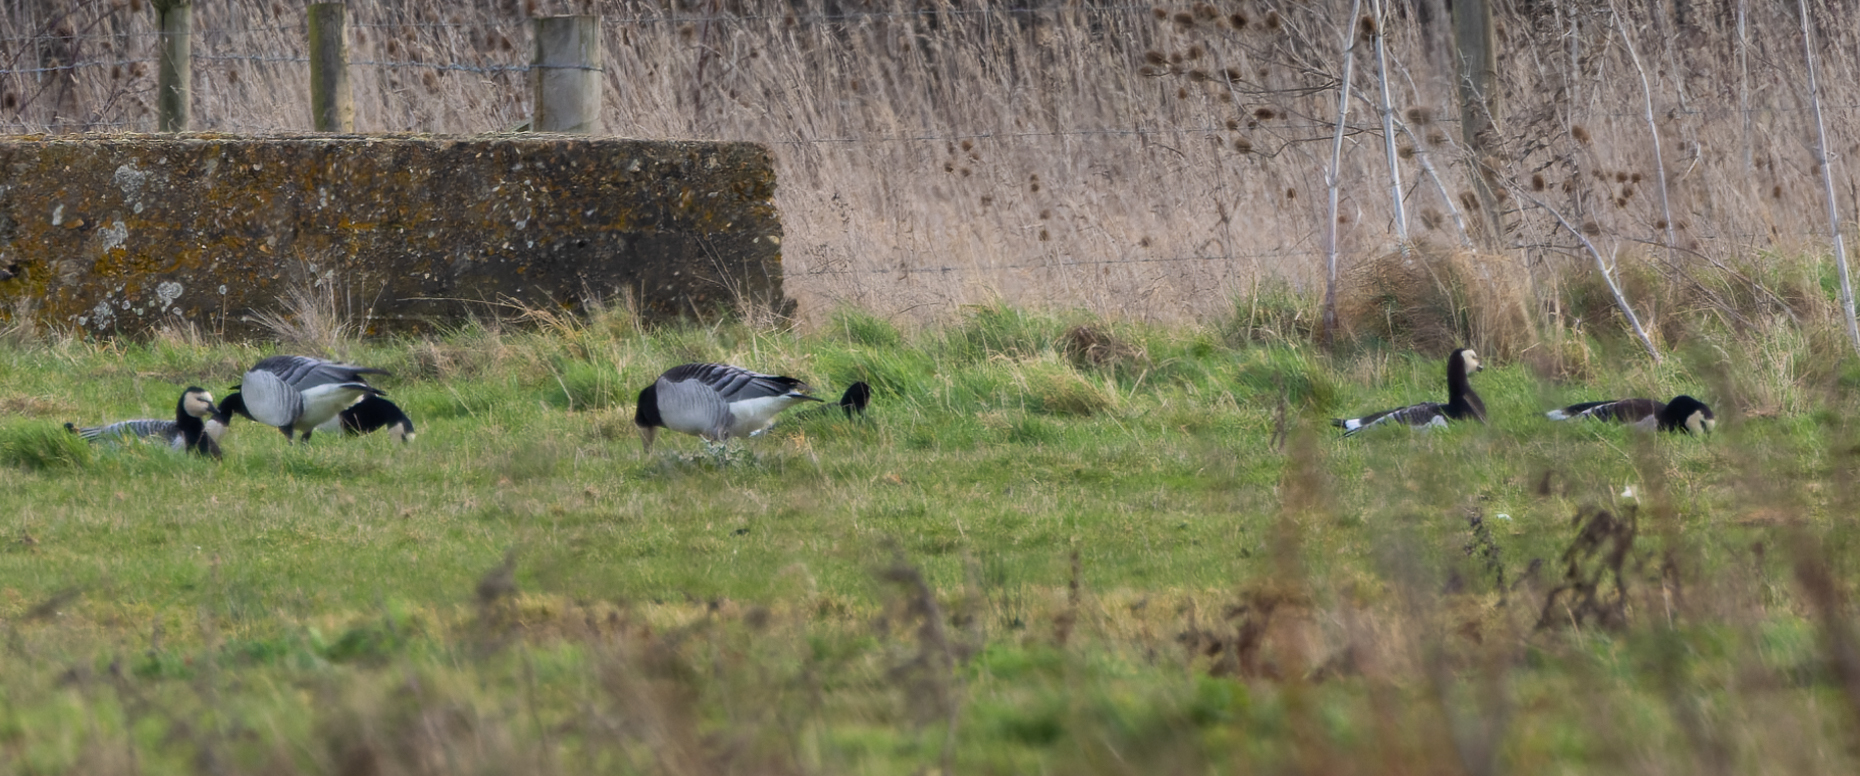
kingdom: Animalia
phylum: Chordata
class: Aves
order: Anseriformes
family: Anatidae
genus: Branta
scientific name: Branta leucopsis
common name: Barnacle goose
